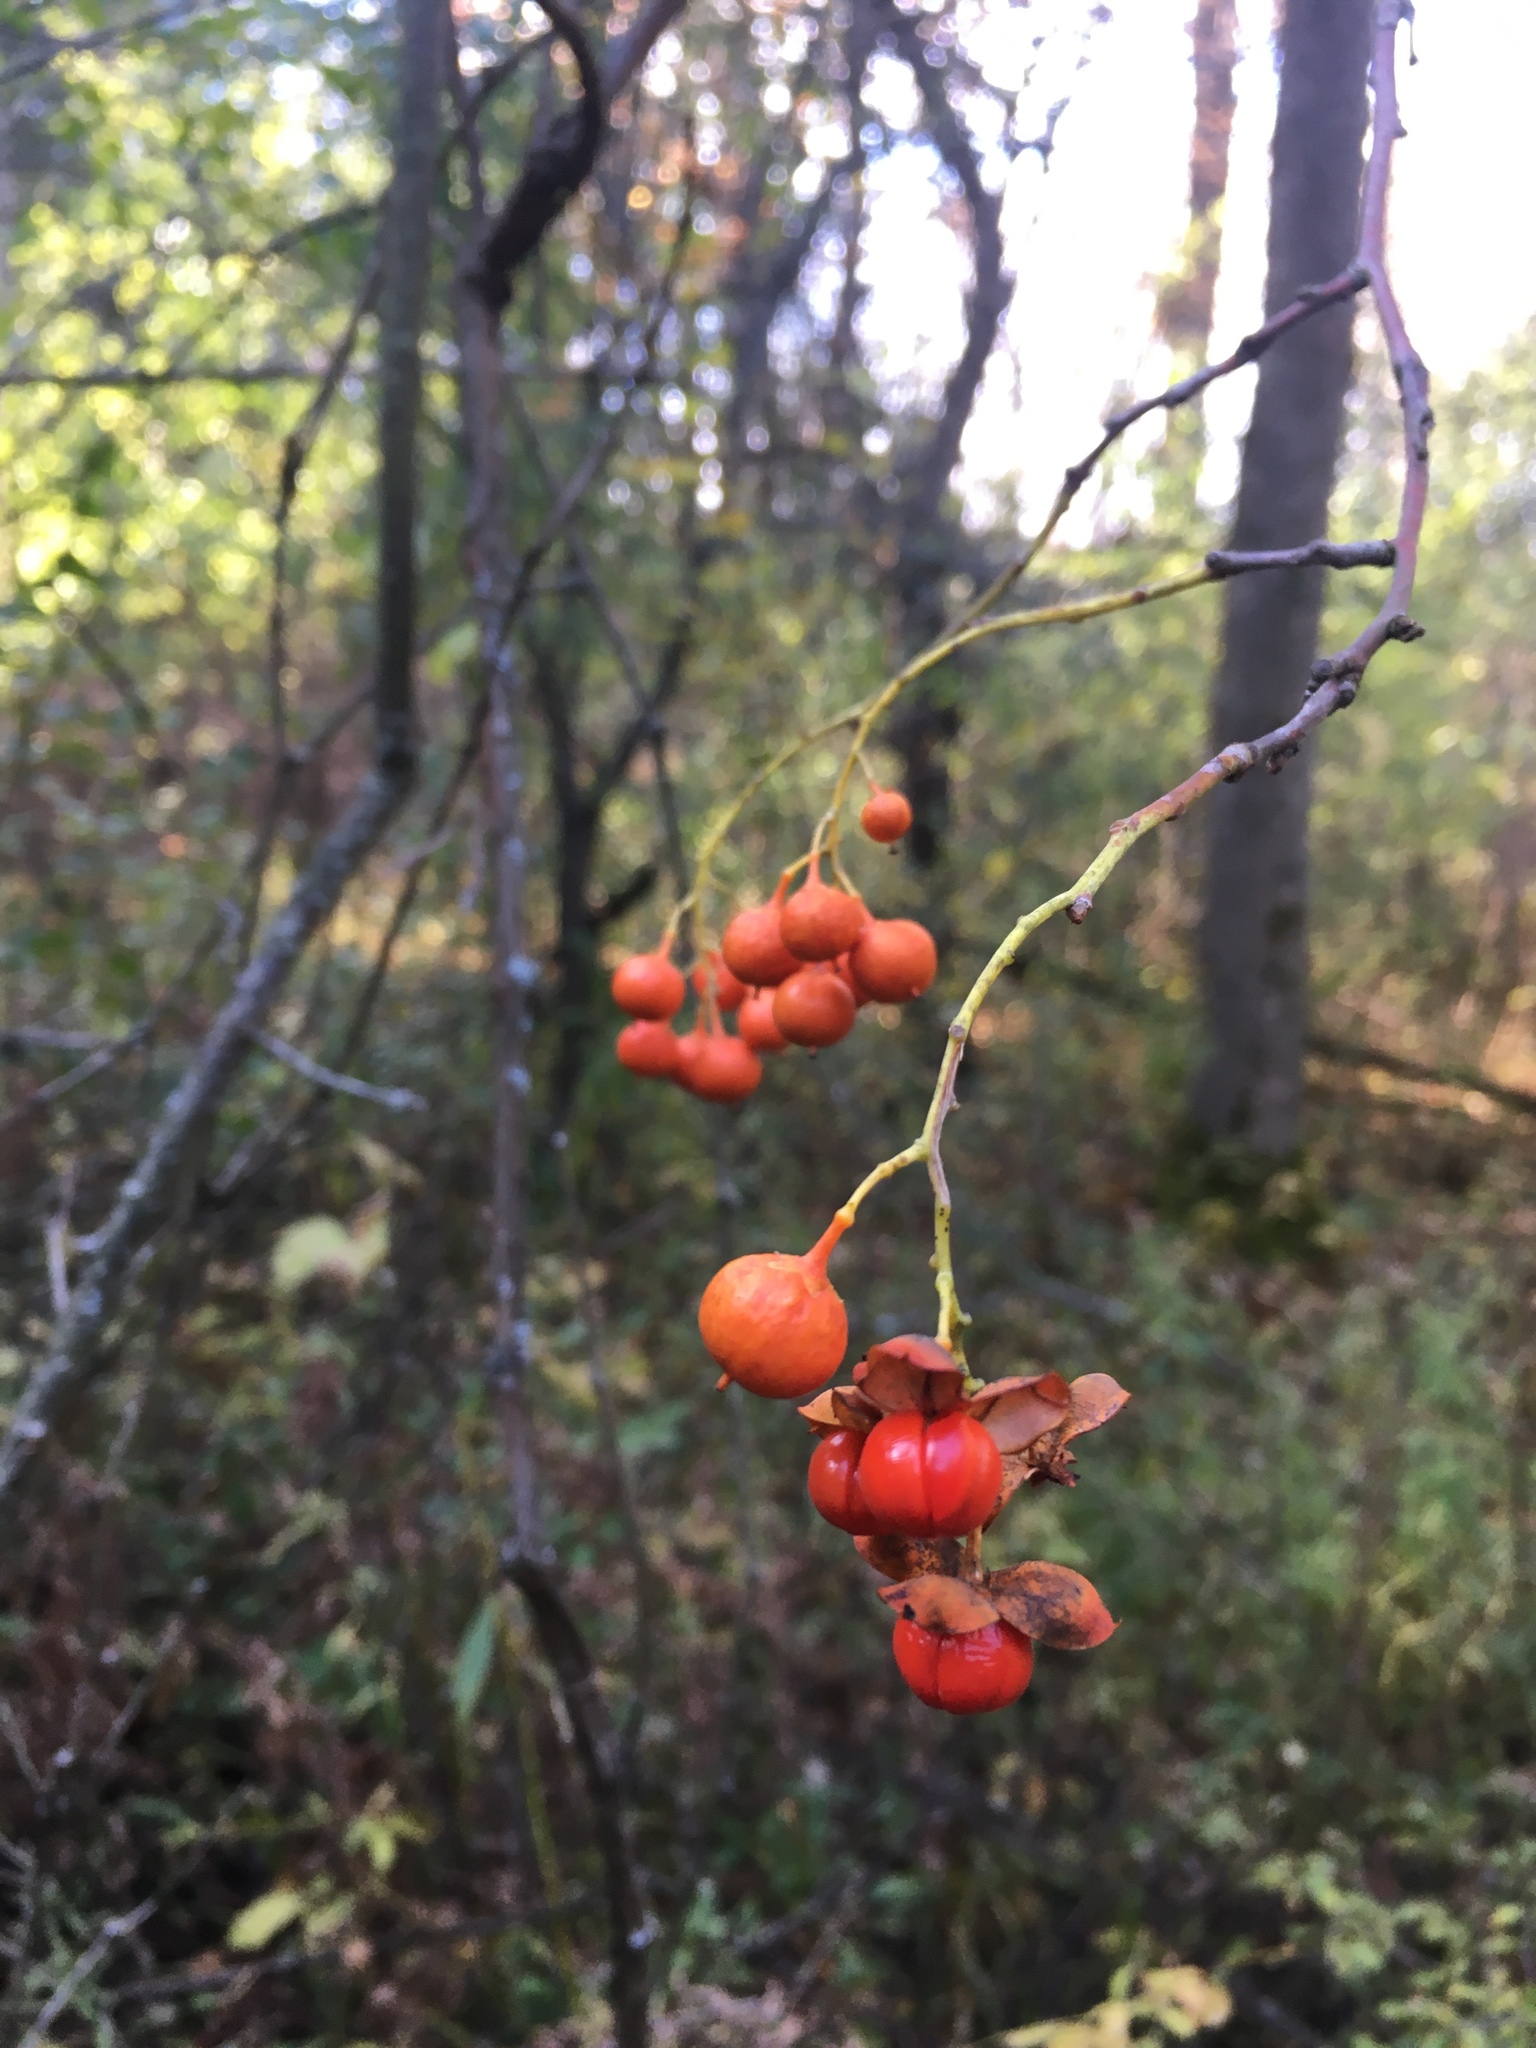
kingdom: Plantae
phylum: Tracheophyta
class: Magnoliopsida
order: Celastrales
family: Celastraceae
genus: Celastrus
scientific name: Celastrus scandens
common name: American bittersweet
